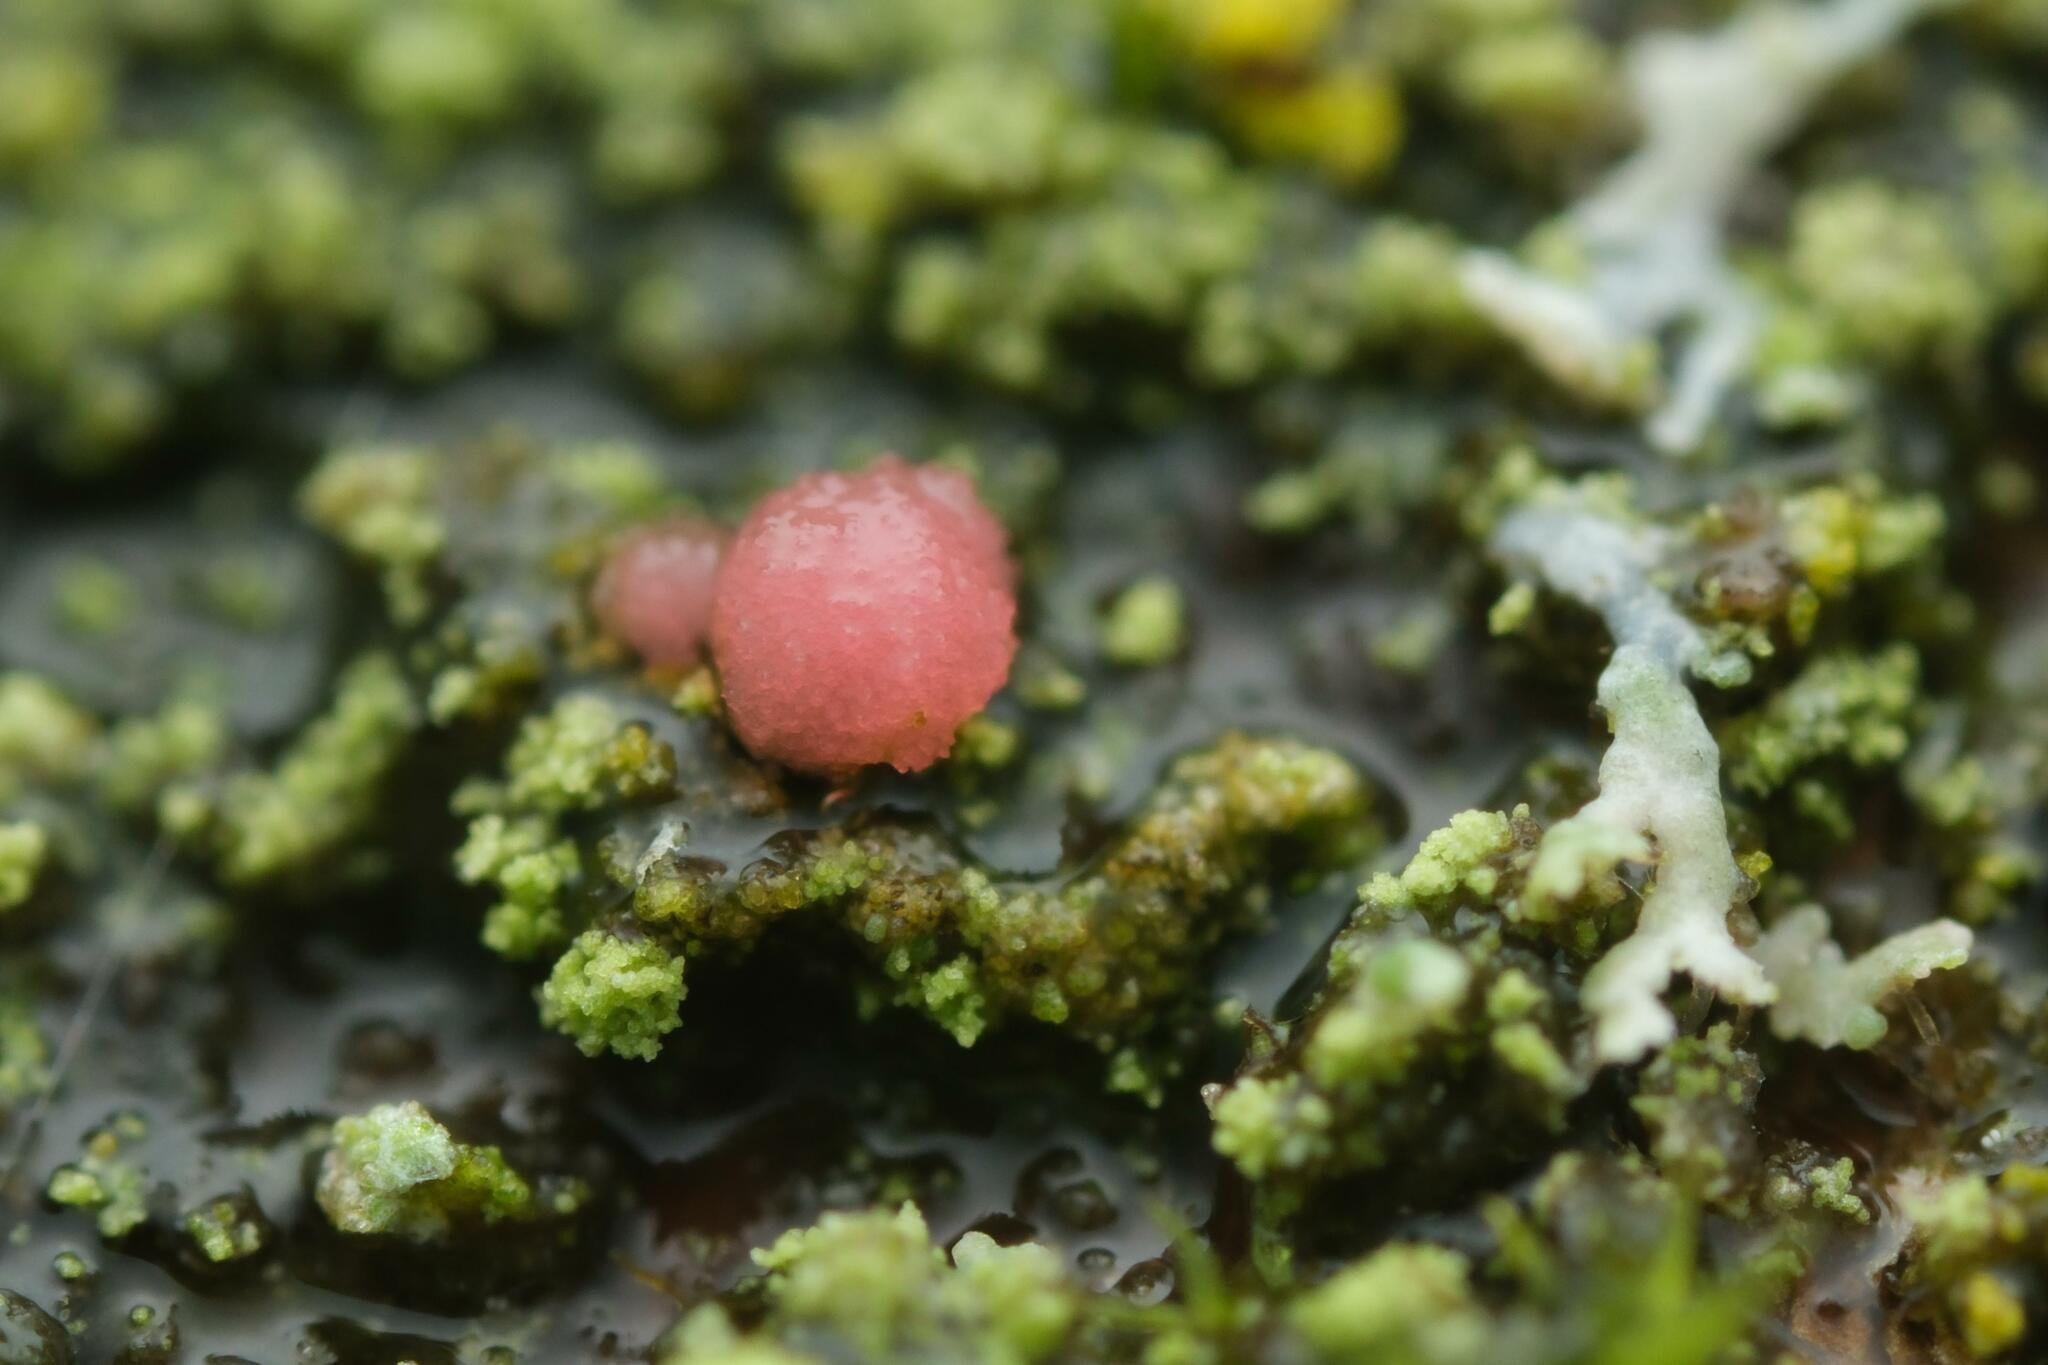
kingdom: Fungi
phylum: Ascomycota
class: Sordariomycetes
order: Hypocreales
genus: Illosporiopsis
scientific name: Illosporiopsis christiansenii
